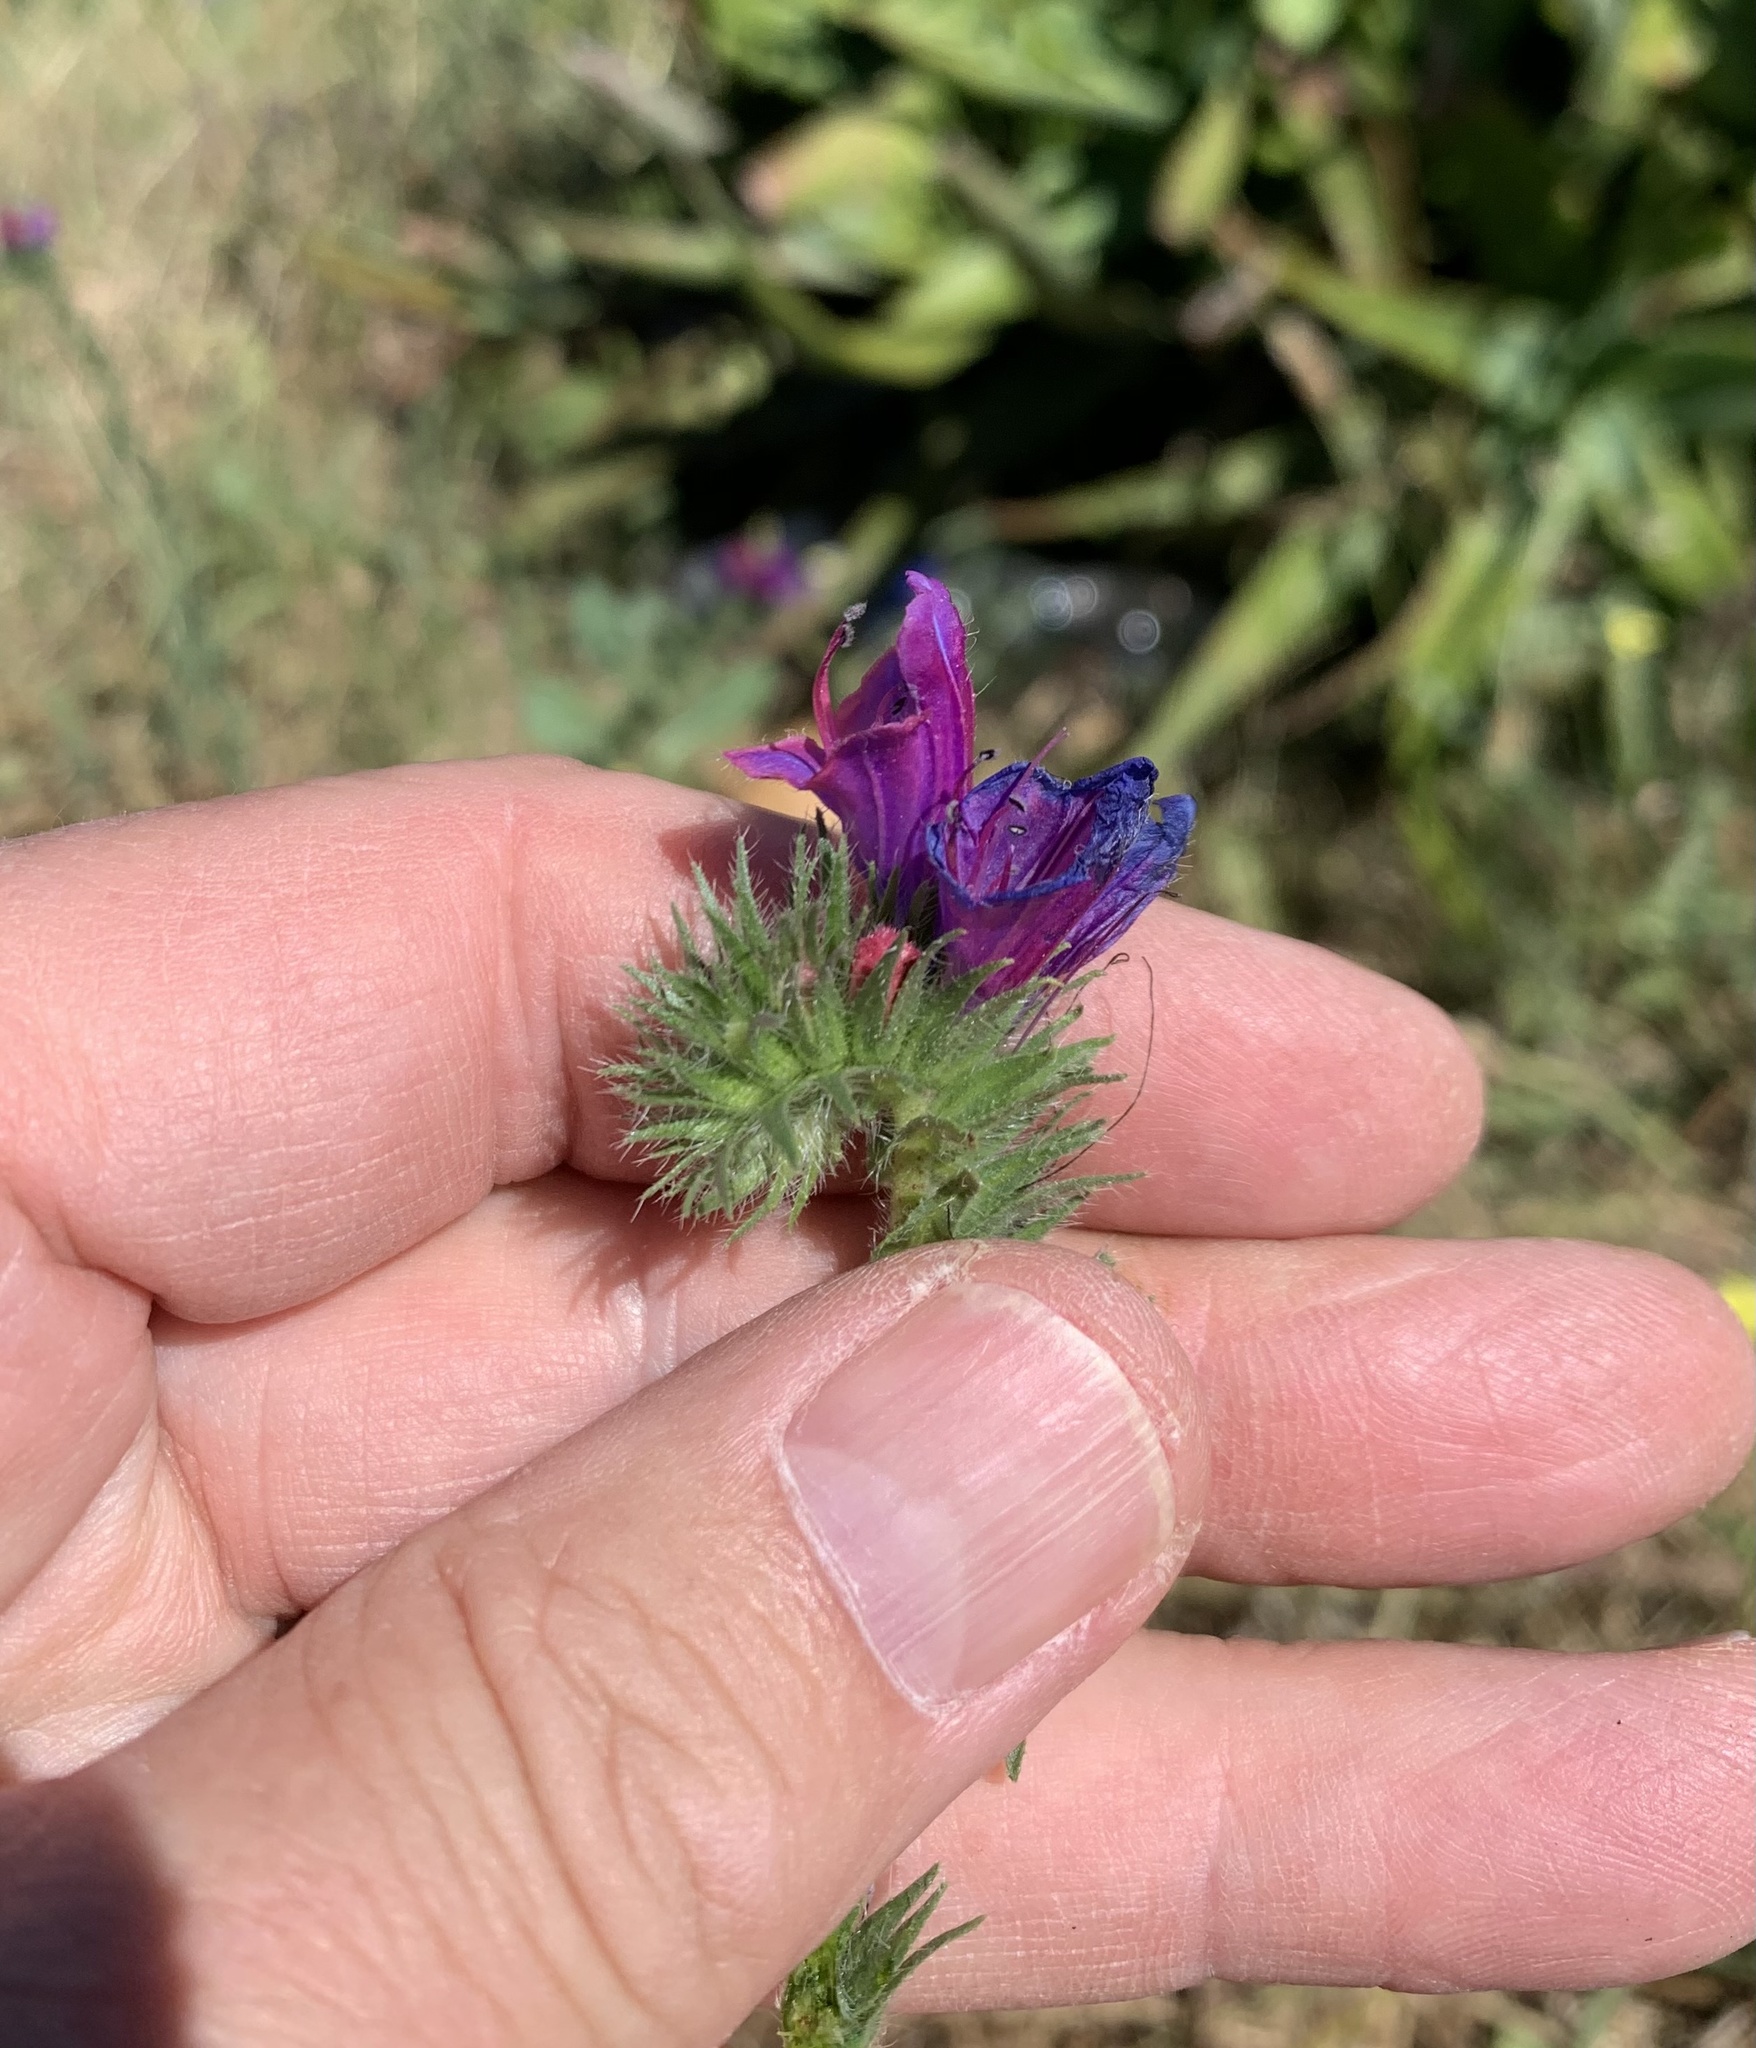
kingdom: Plantae
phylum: Tracheophyta
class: Magnoliopsida
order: Boraginales
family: Boraginaceae
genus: Echium
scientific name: Echium plantagineum
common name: Purple viper's-bugloss
